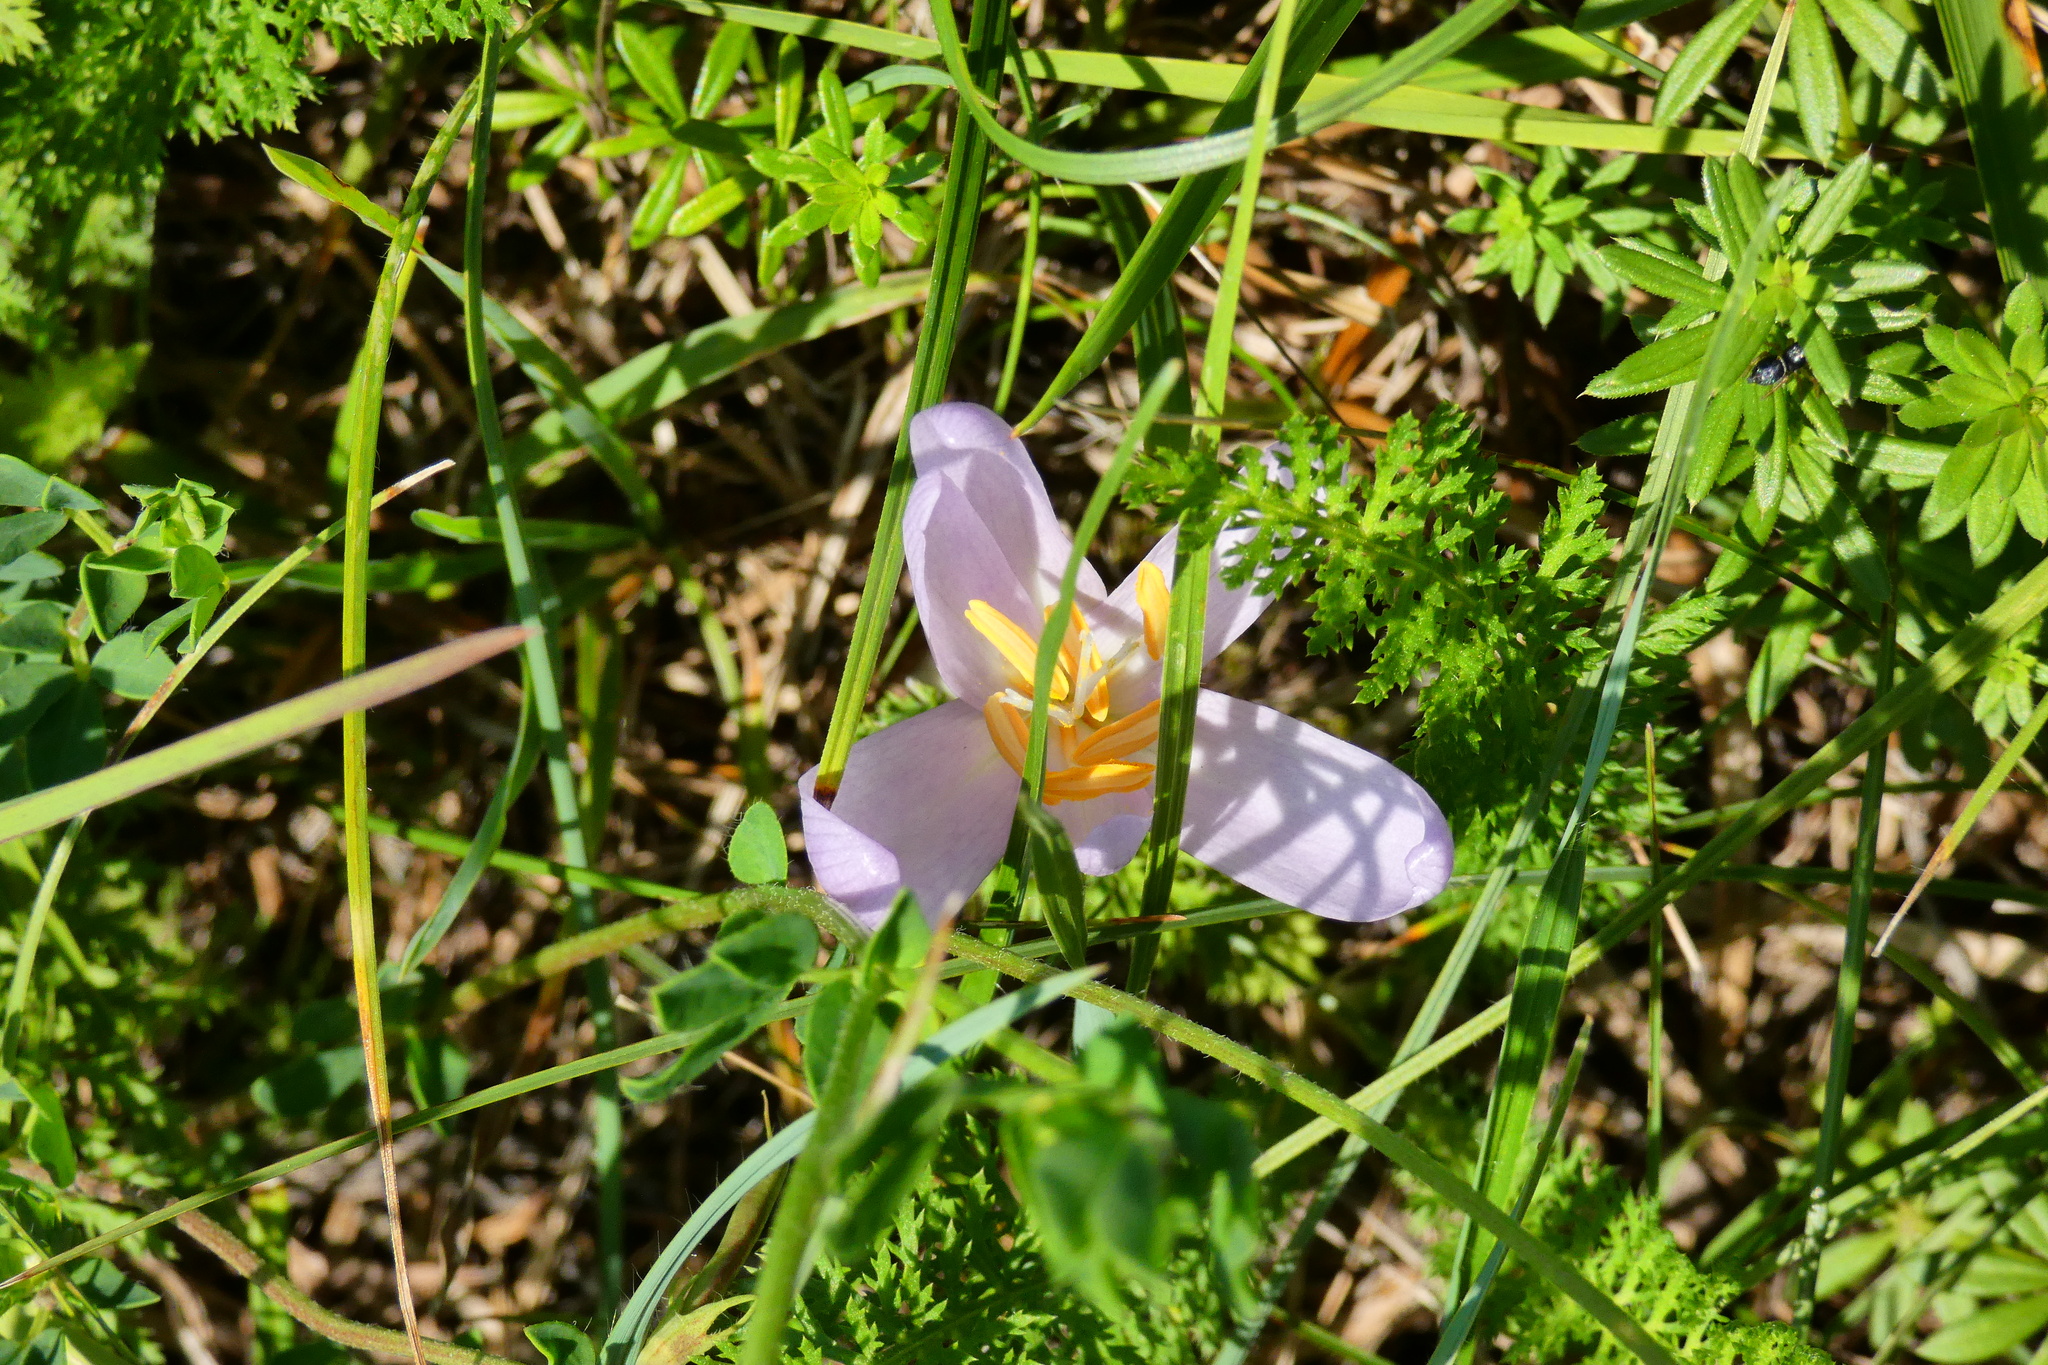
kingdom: Plantae
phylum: Tracheophyta
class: Liliopsida
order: Liliales
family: Colchicaceae
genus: Colchicum
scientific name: Colchicum autumnale
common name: Autumn crocus
